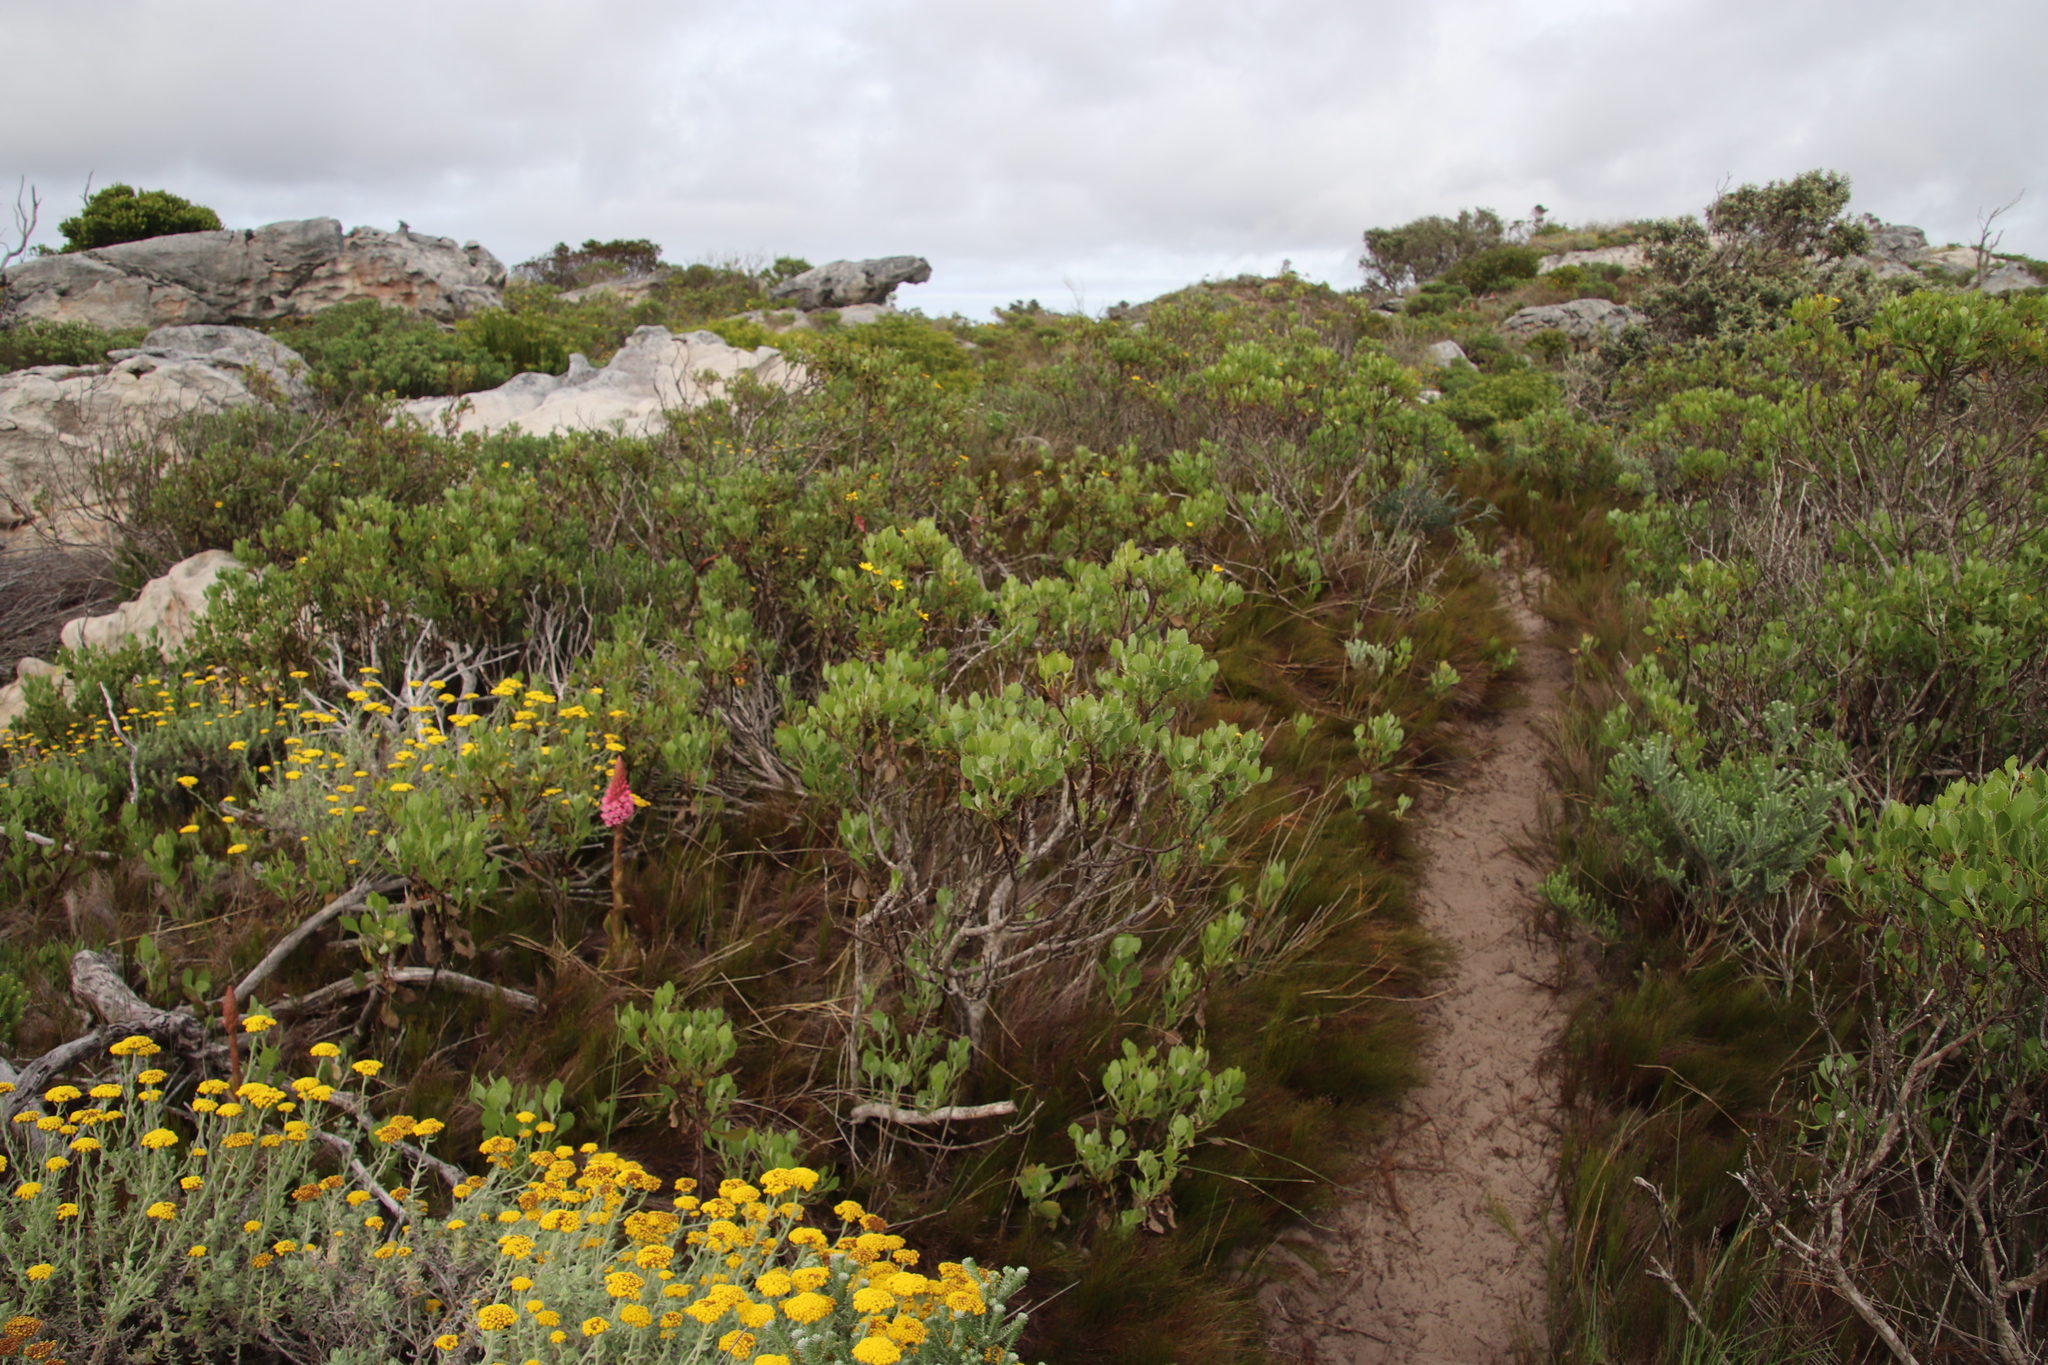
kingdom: Plantae
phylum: Tracheophyta
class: Magnoliopsida
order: Asterales
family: Asteraceae
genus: Osteospermum
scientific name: Osteospermum moniliferum
